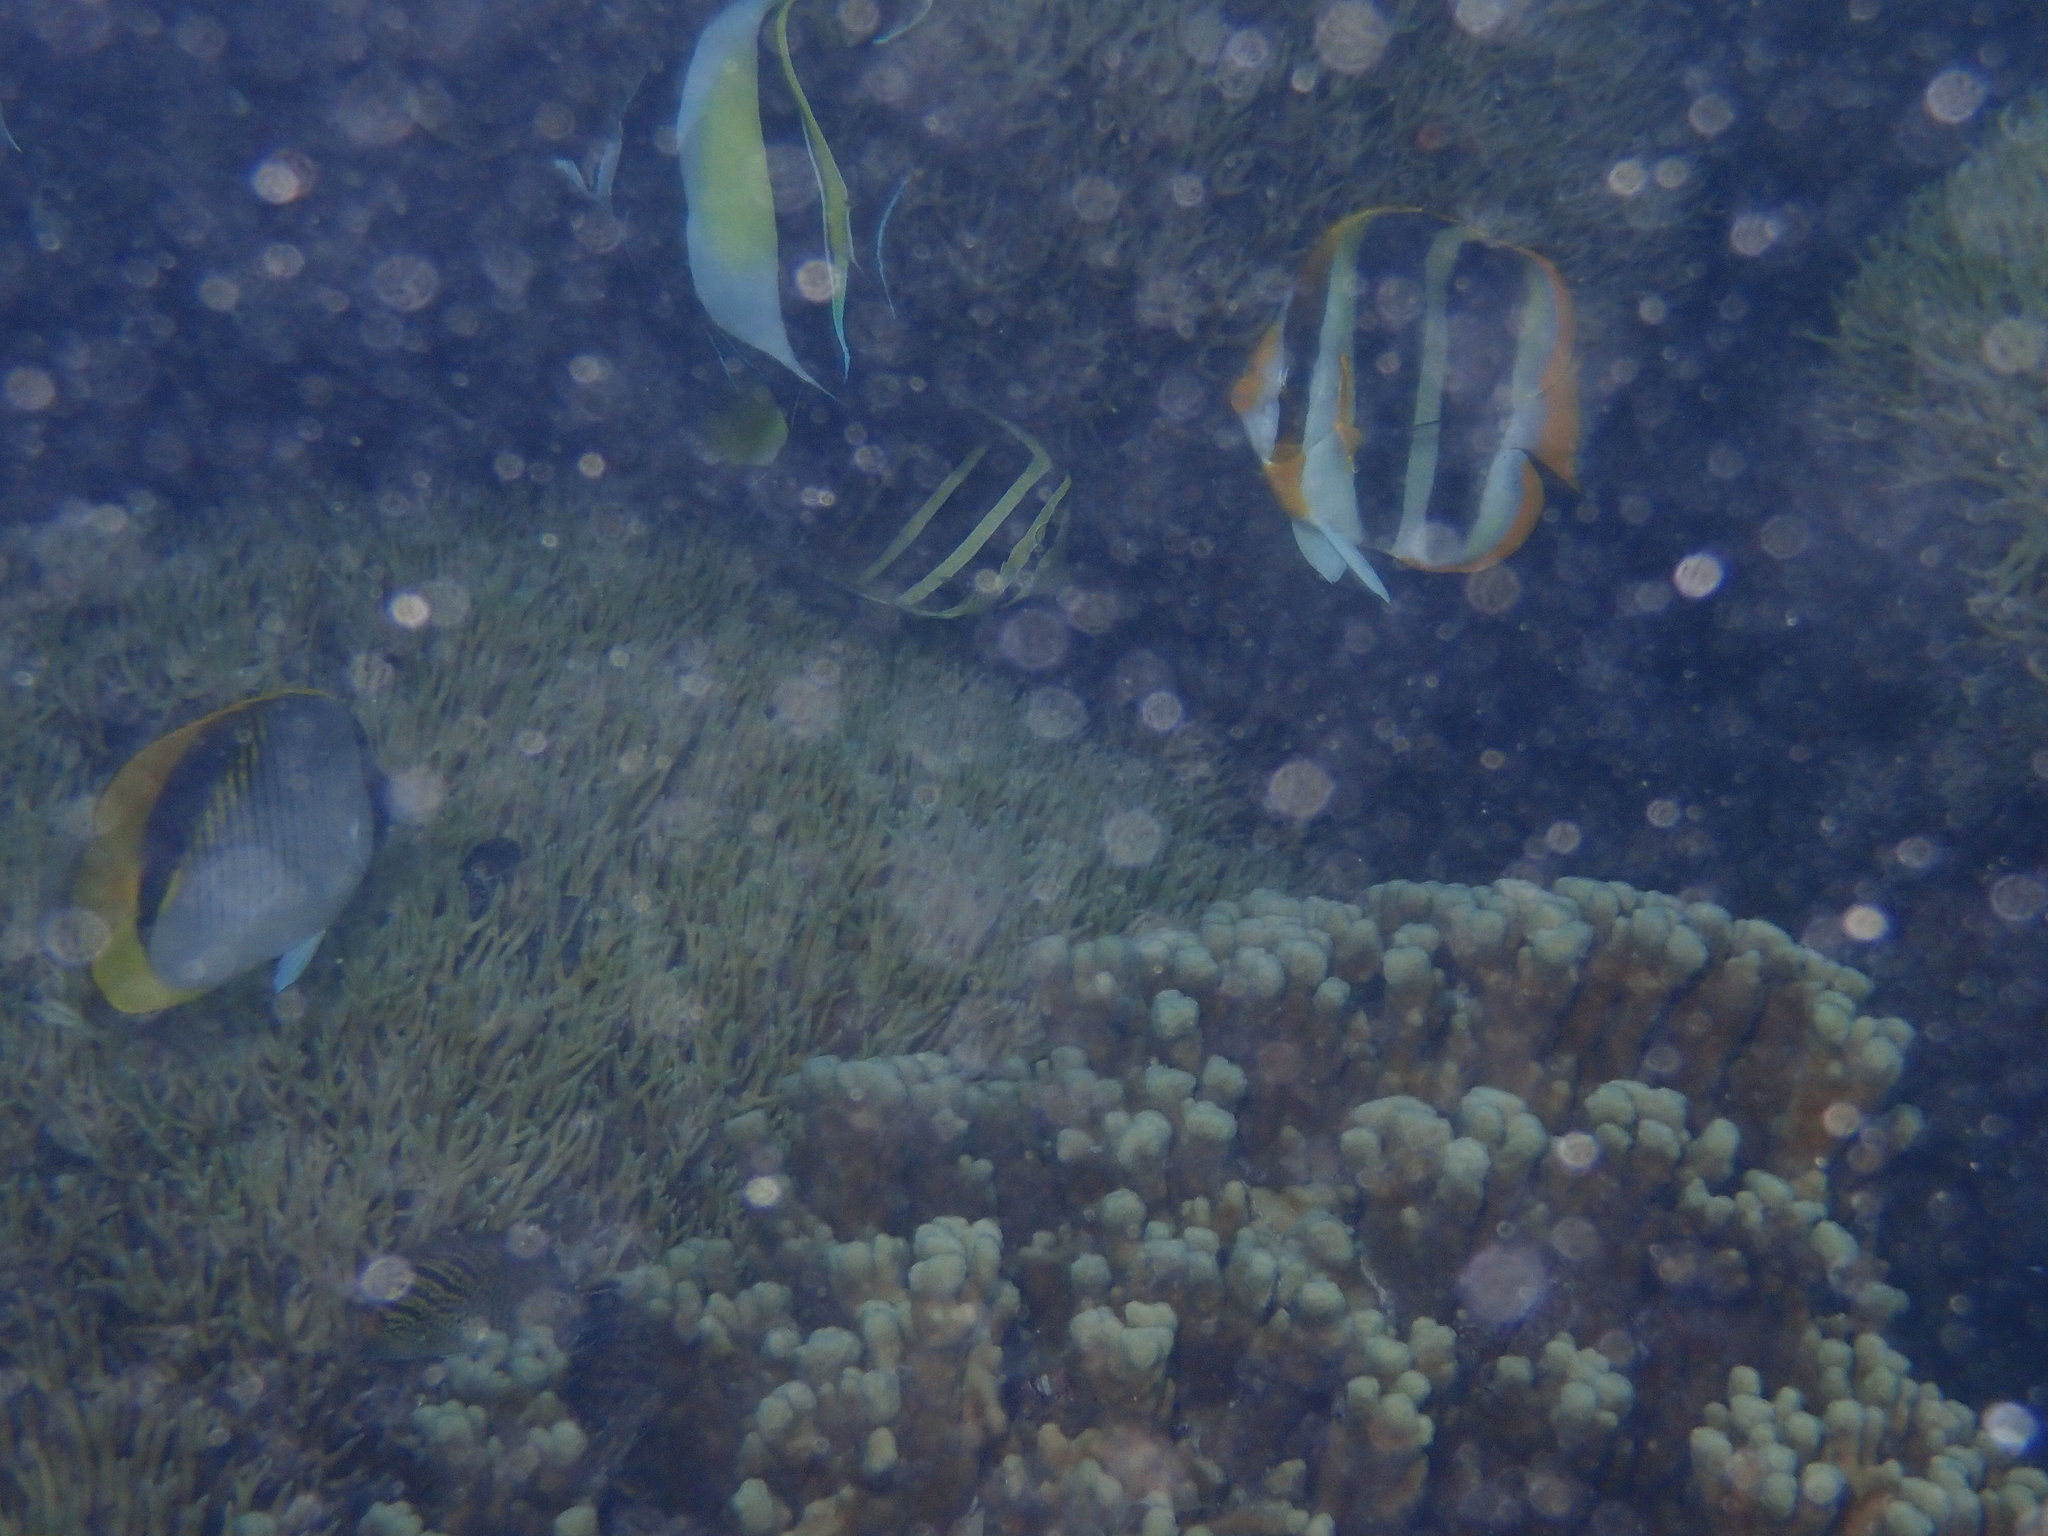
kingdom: Animalia
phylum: Chordata
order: Perciformes
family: Acanthuridae
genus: Zebrasoma
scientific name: Zebrasoma veliferum
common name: Sailfin surgeonfish
